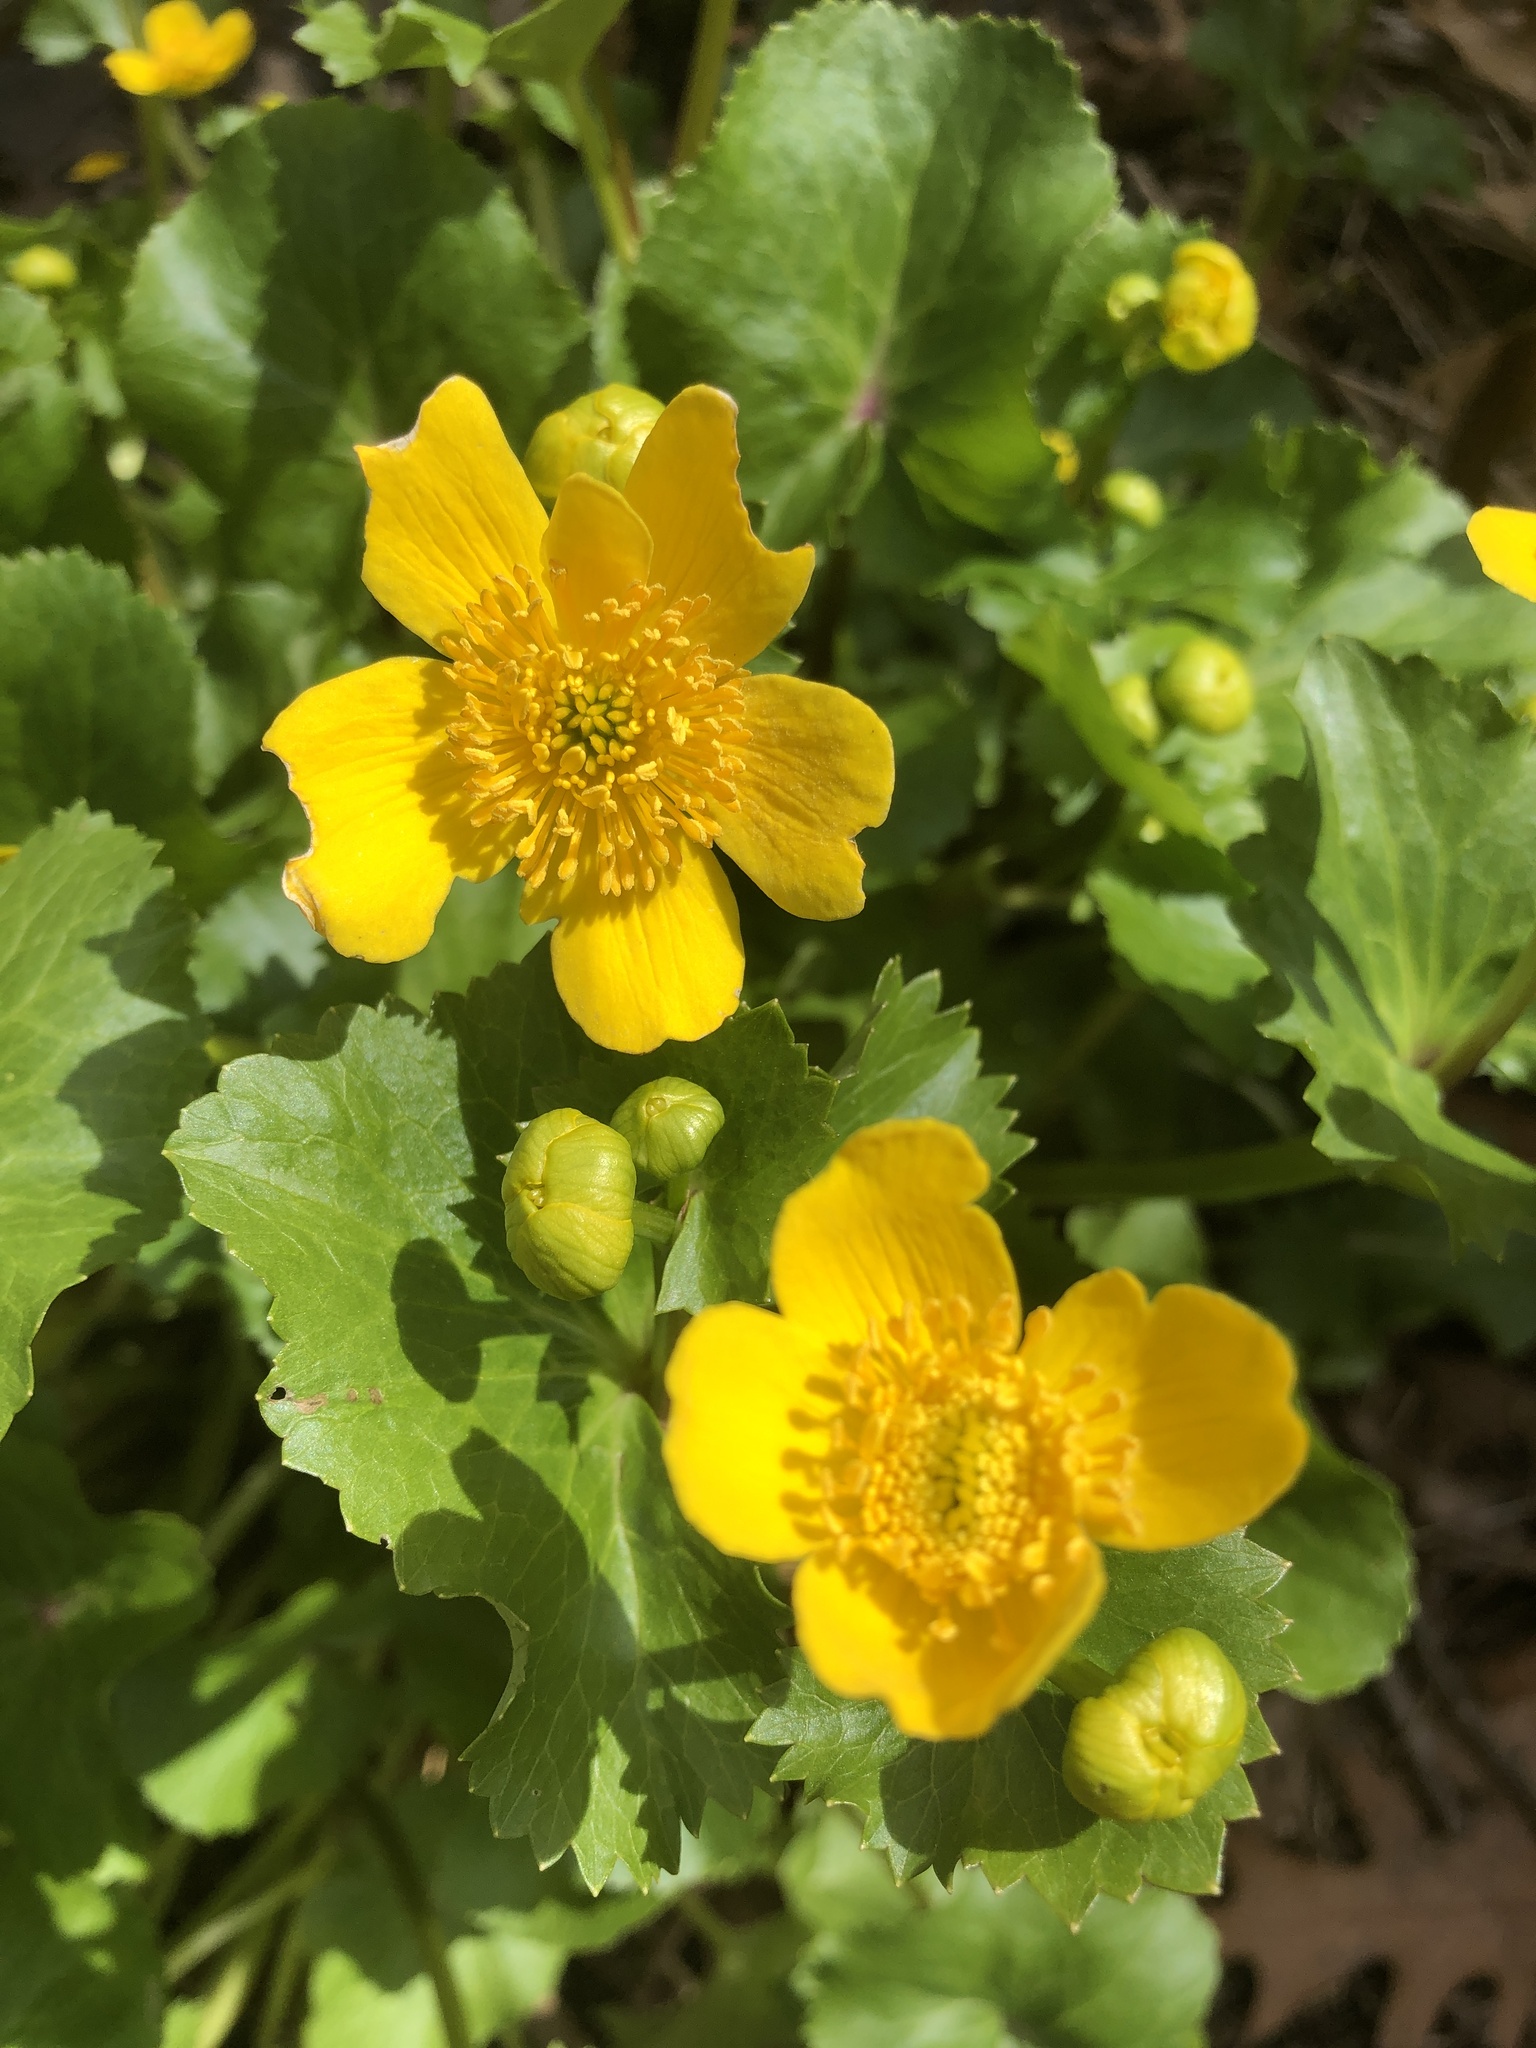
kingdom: Plantae
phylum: Tracheophyta
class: Magnoliopsida
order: Ranunculales
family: Ranunculaceae
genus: Caltha
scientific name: Caltha palustris
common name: Marsh marigold
